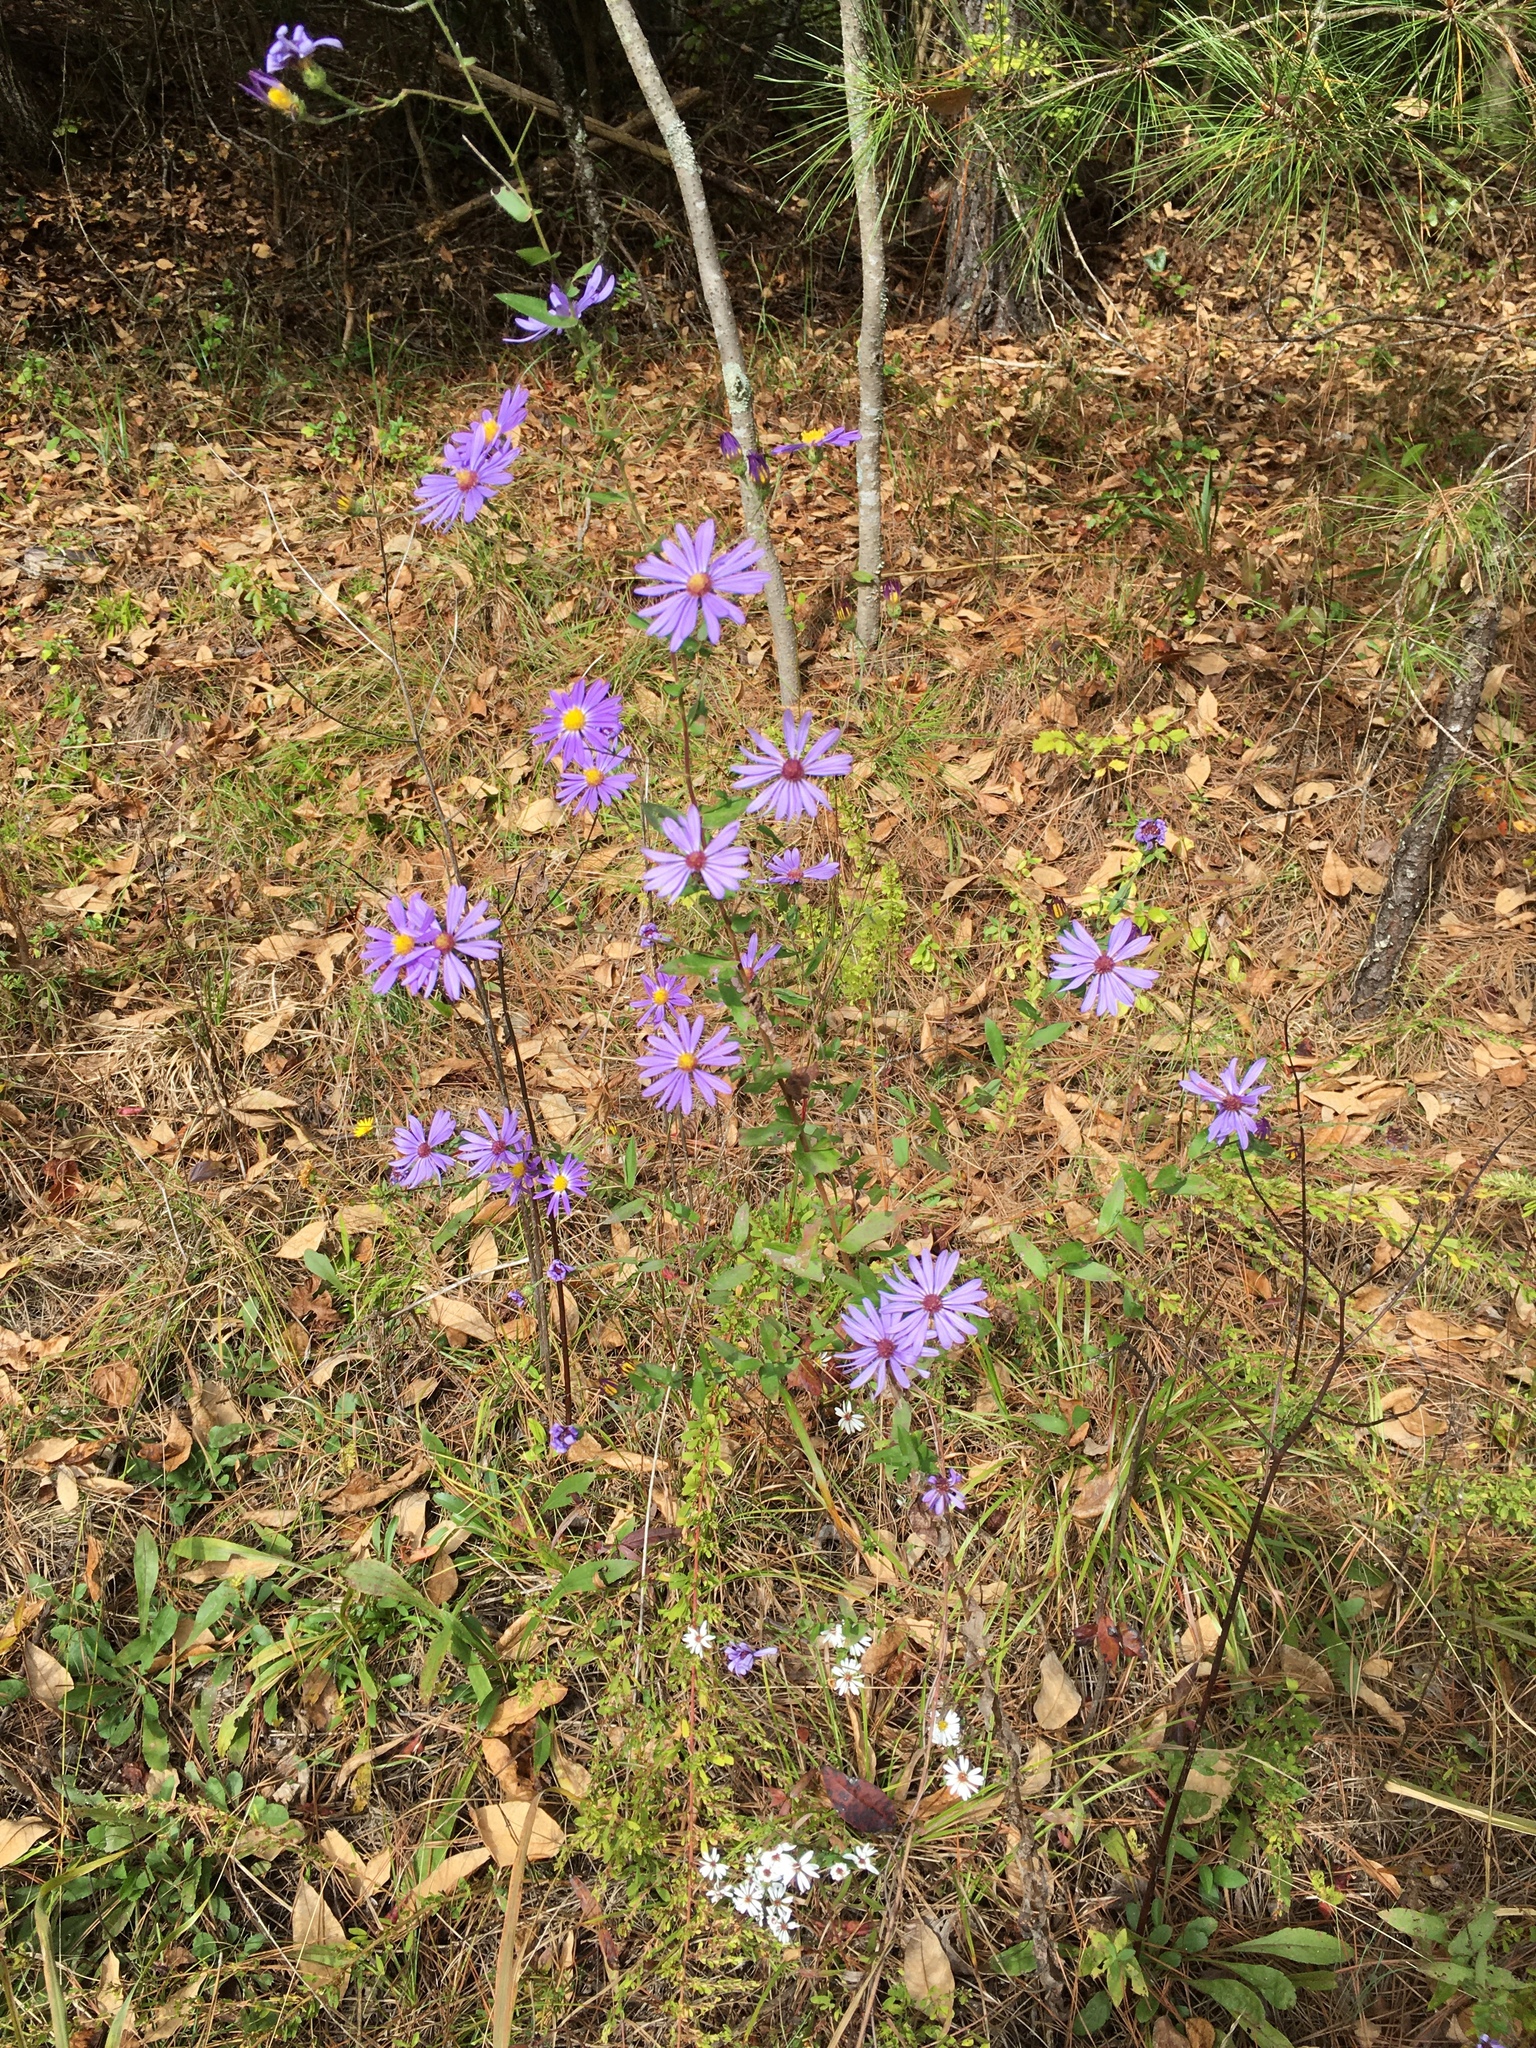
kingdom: Plantae
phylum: Tracheophyta
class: Magnoliopsida
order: Asterales
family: Asteraceae
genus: Symphyotrichum
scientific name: Symphyotrichum patens
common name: Late purple aster
